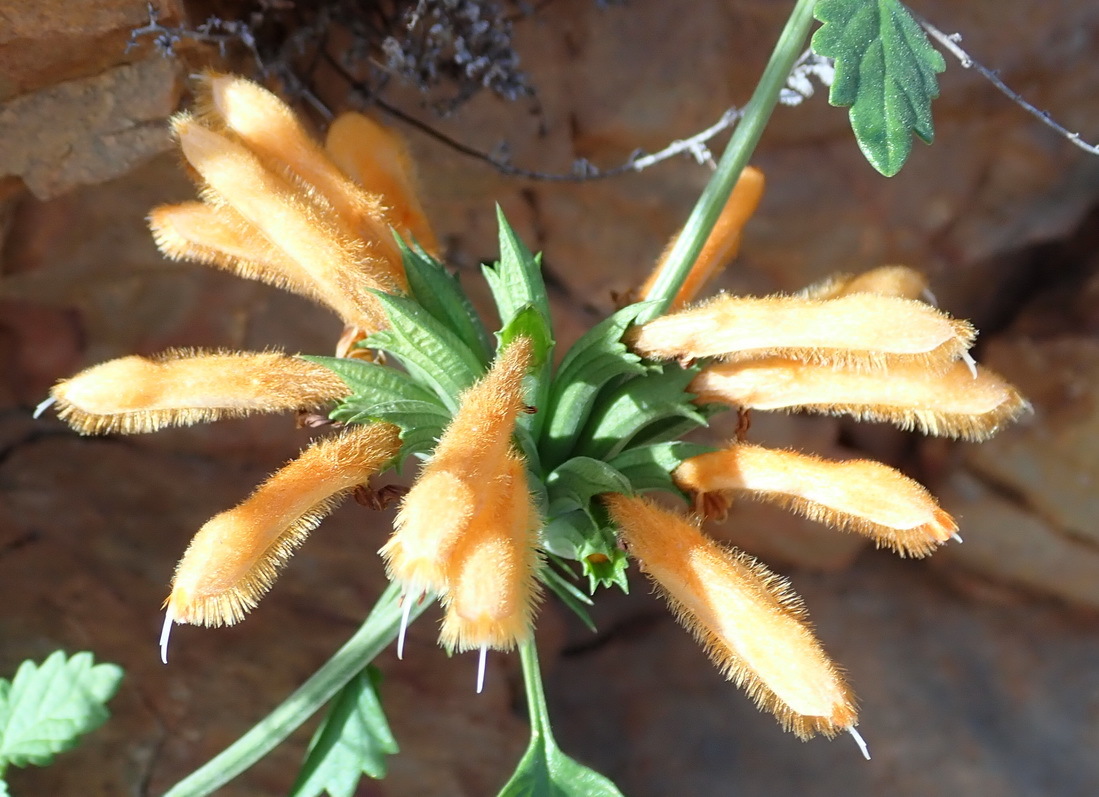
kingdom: Plantae
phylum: Tracheophyta
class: Magnoliopsida
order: Lamiales
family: Lamiaceae
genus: Leonotis
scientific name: Leonotis ocymifolia
